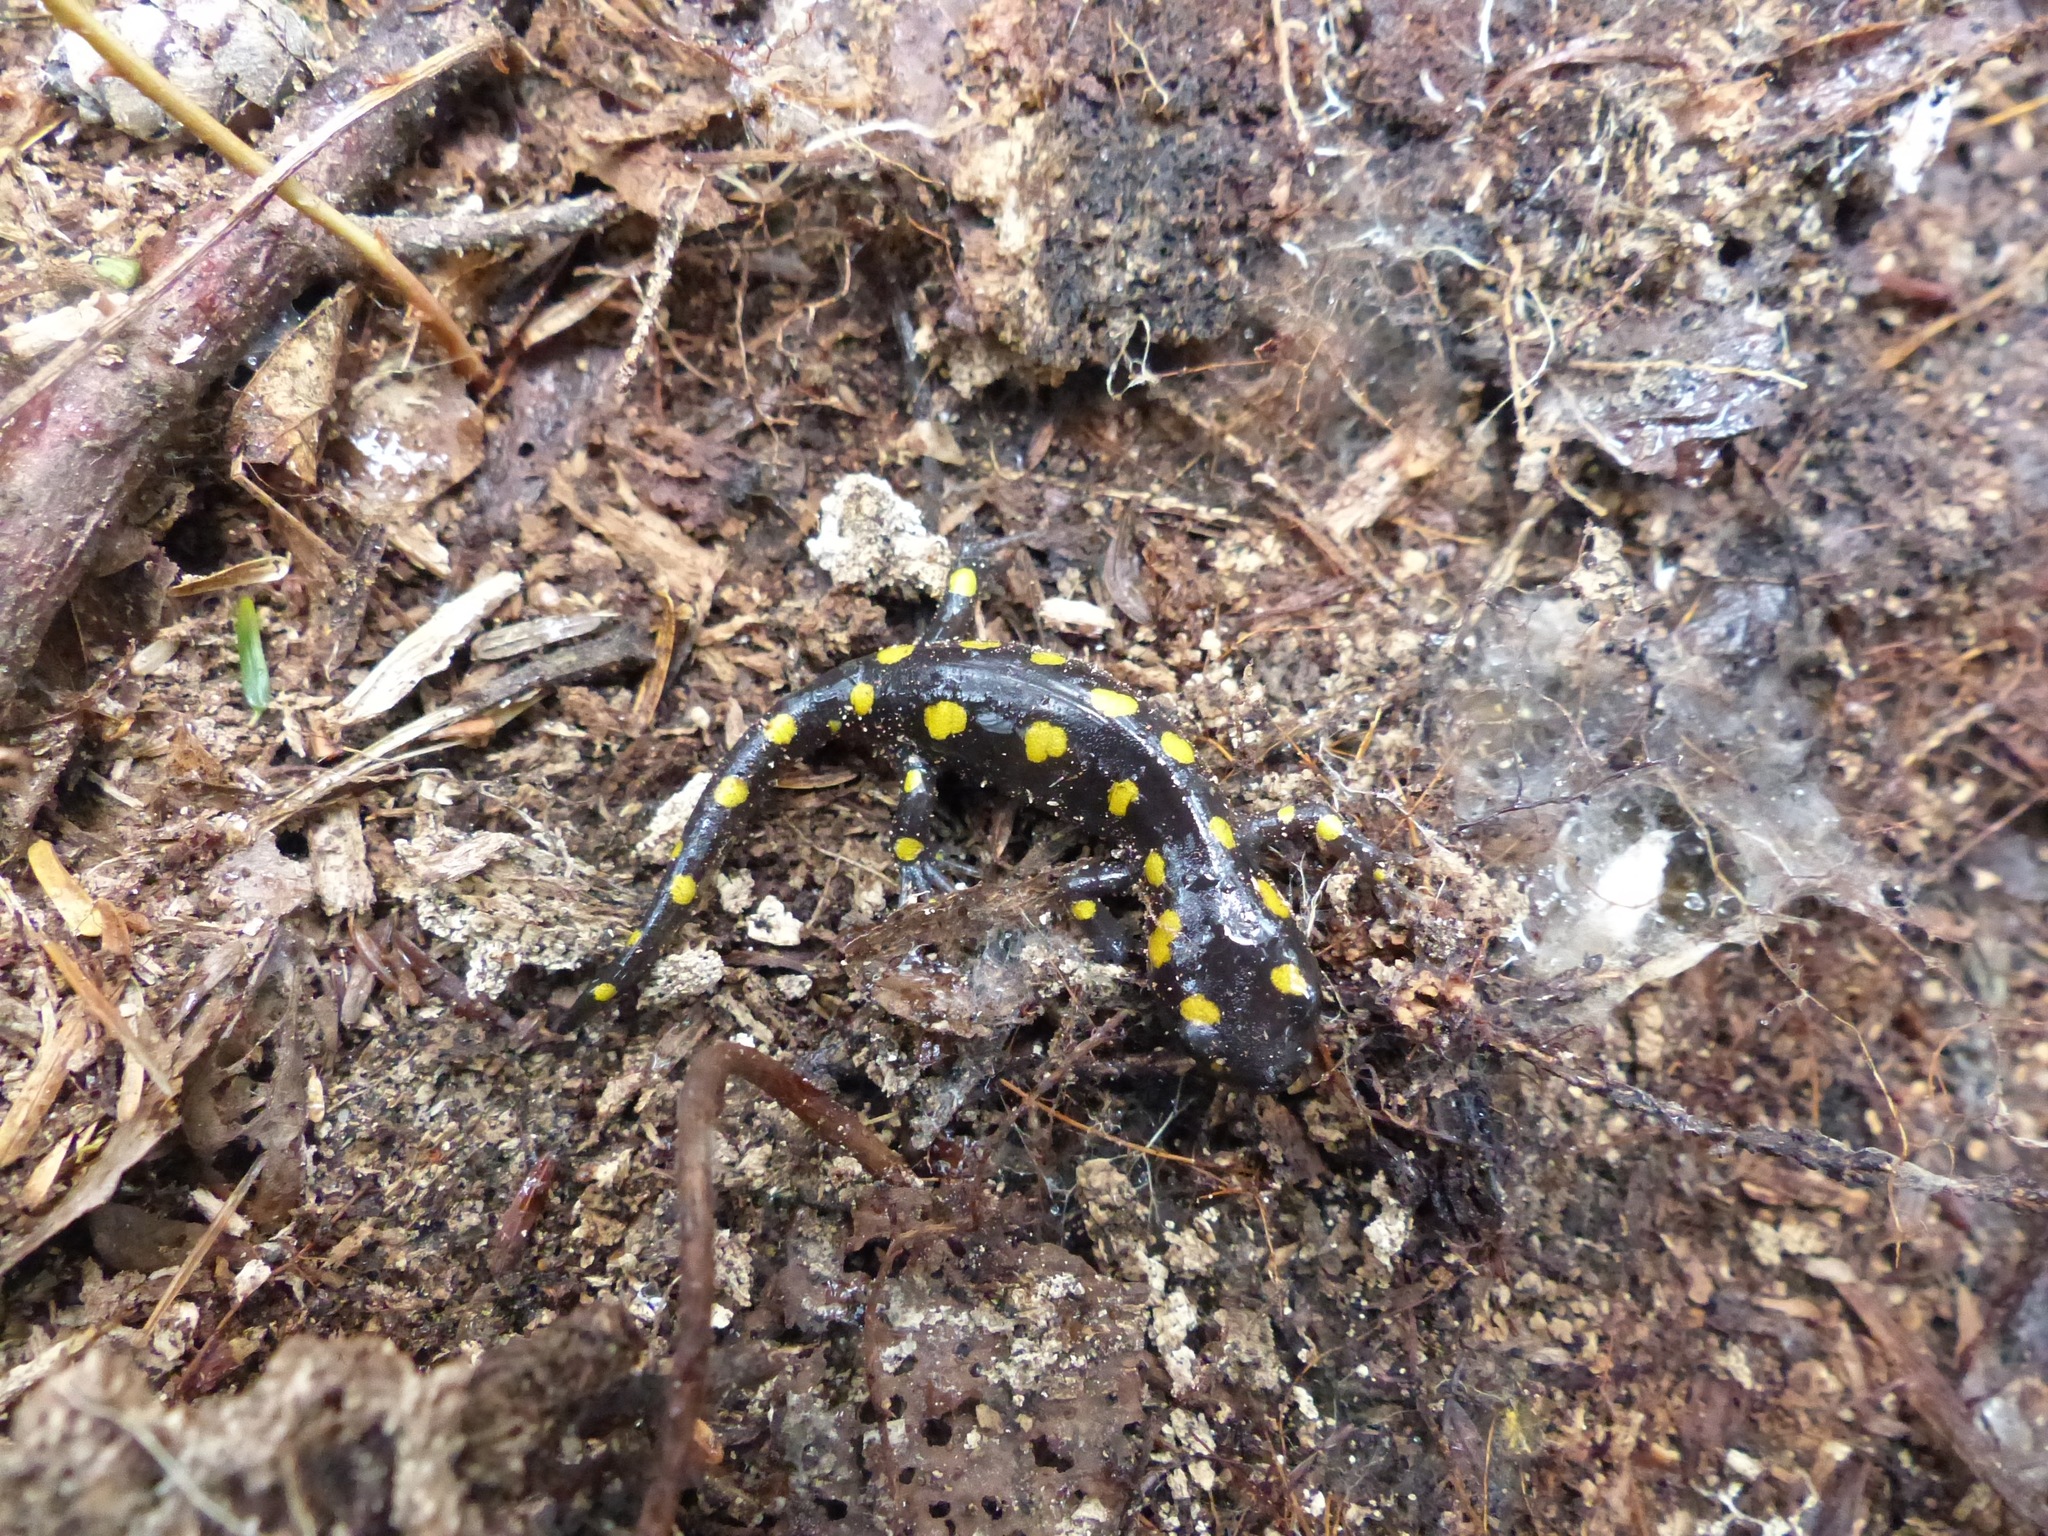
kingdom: Animalia
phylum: Chordata
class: Amphibia
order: Caudata
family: Ambystomatidae
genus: Ambystoma
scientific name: Ambystoma maculatum
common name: Spotted salamander
